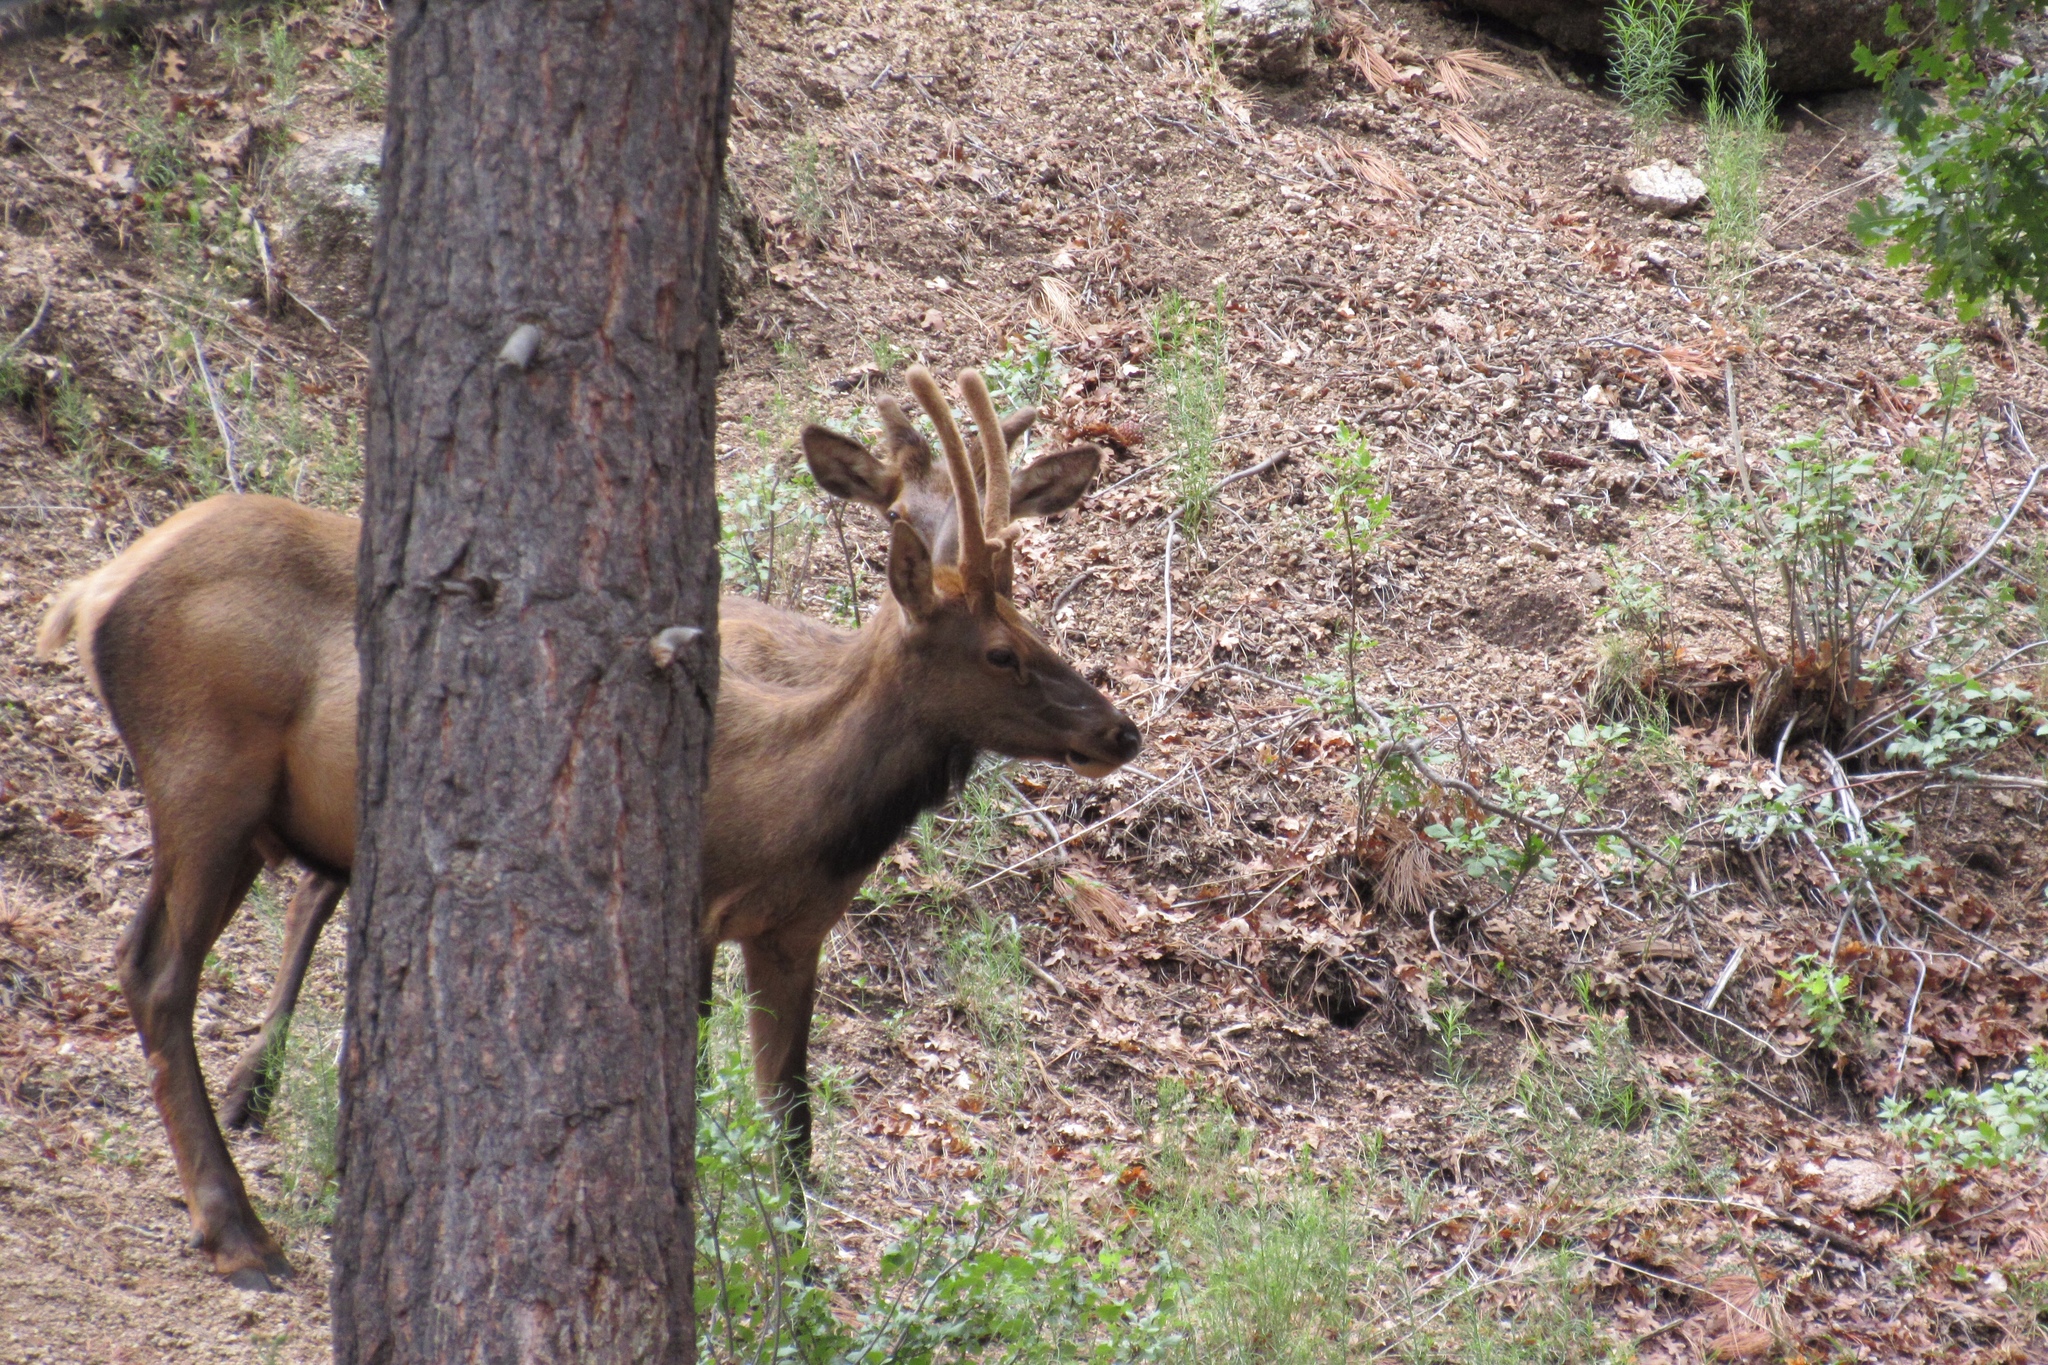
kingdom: Animalia
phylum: Chordata
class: Mammalia
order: Artiodactyla
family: Cervidae
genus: Cervus
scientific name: Cervus elaphus
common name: Red deer
